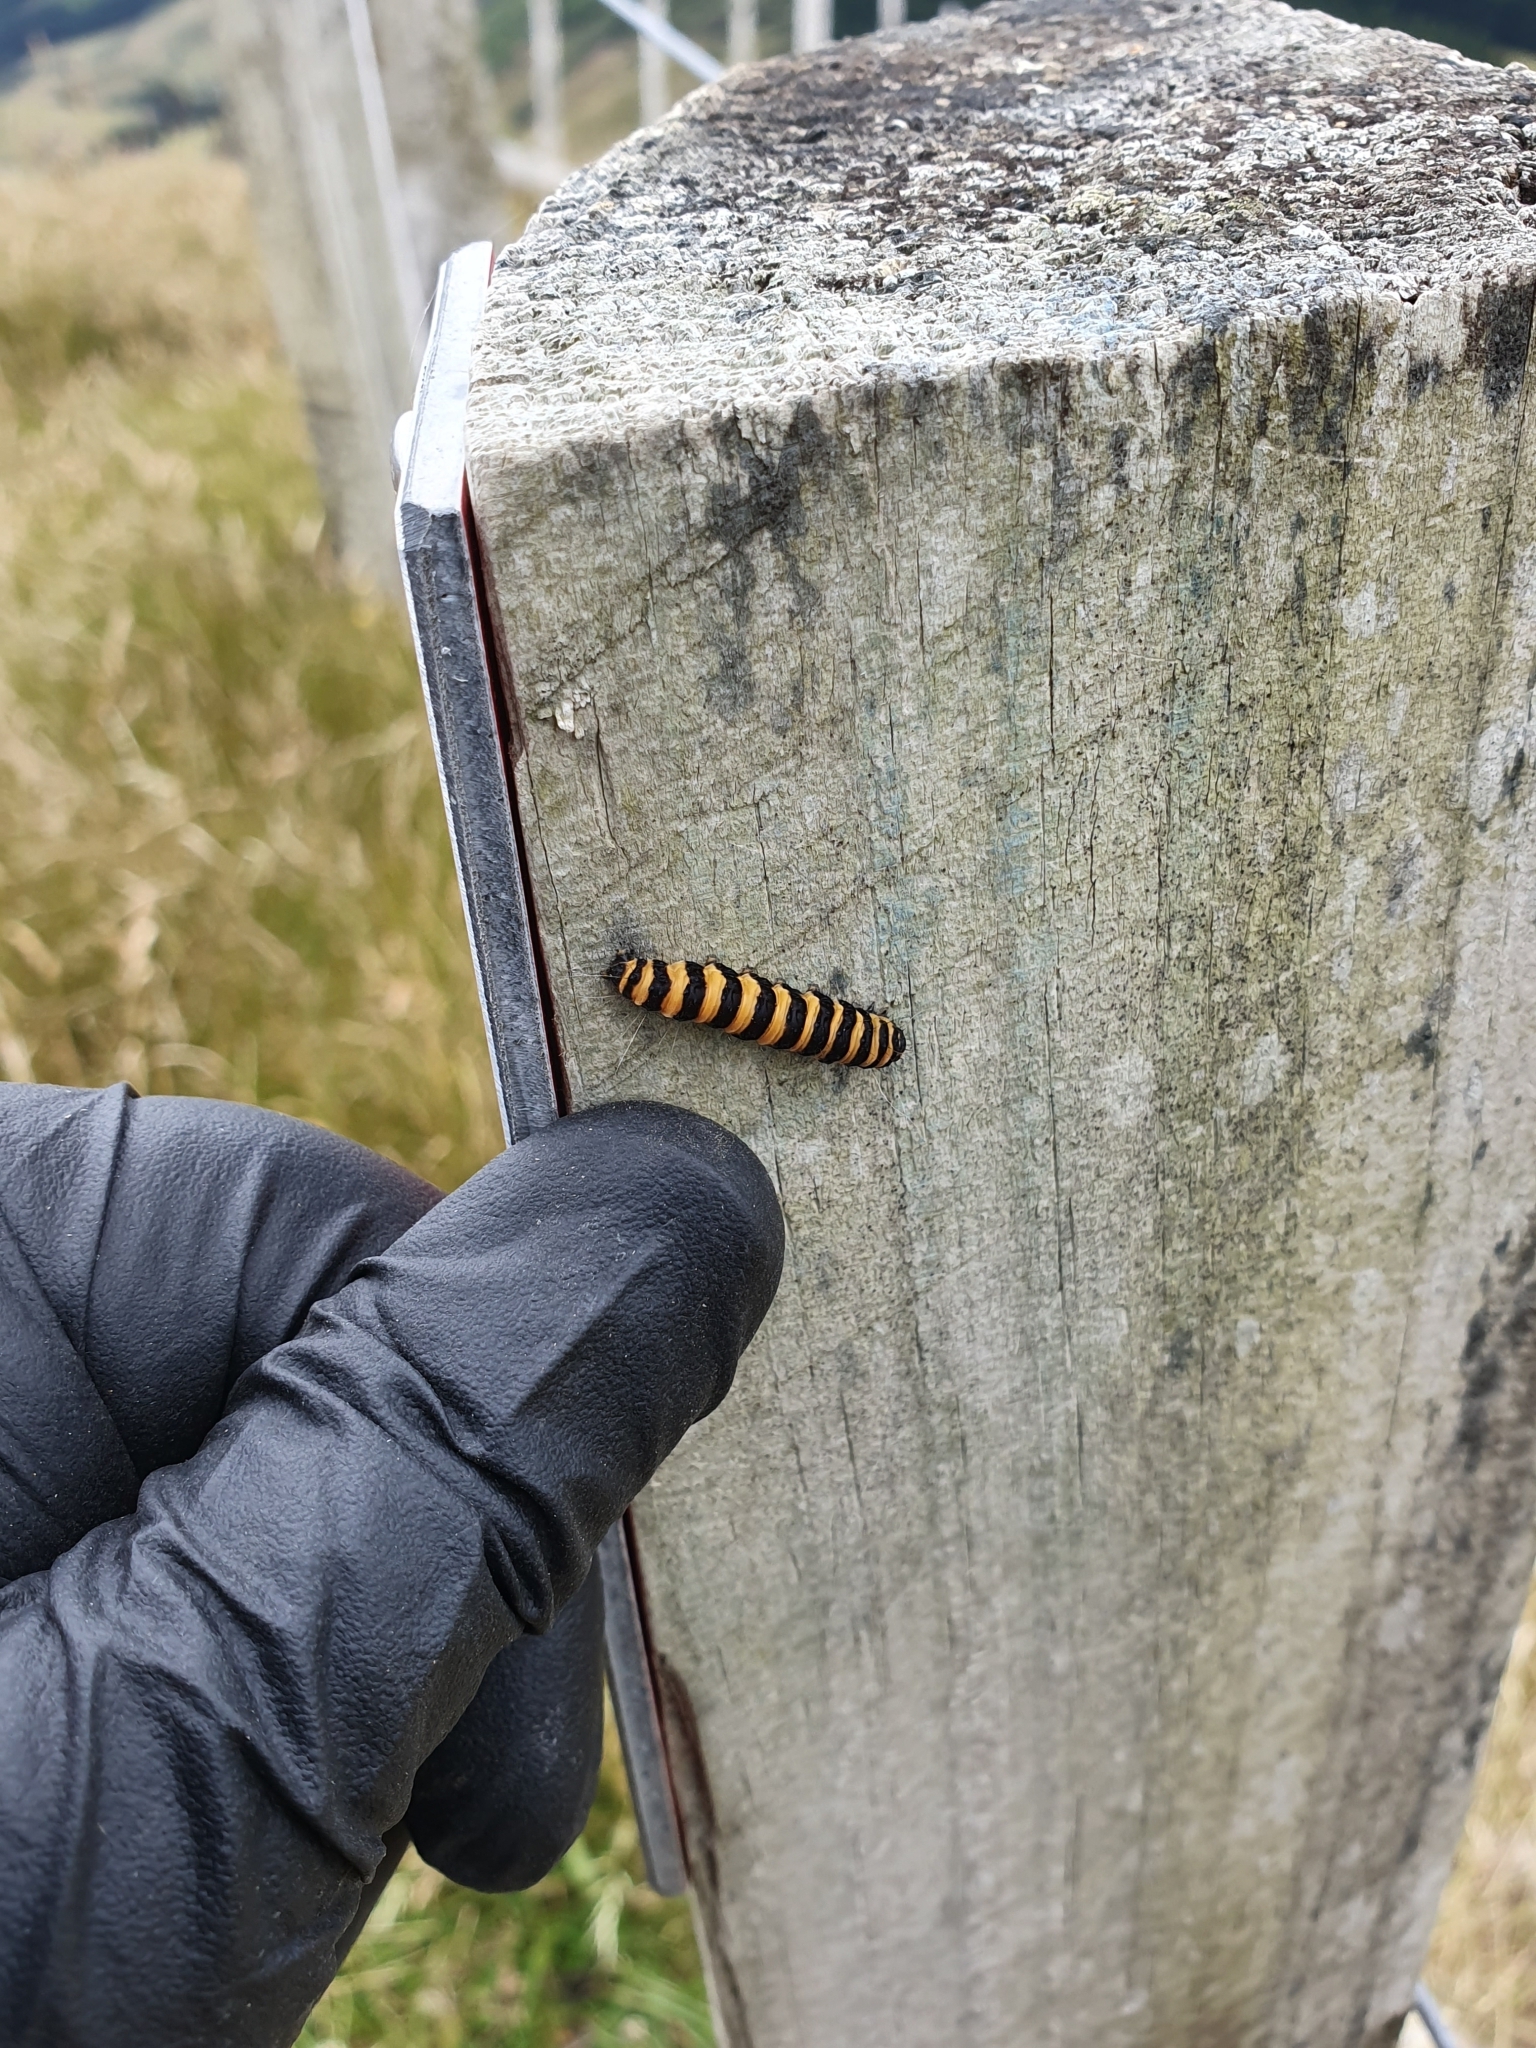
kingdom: Animalia
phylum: Arthropoda
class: Insecta
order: Lepidoptera
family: Erebidae
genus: Tyria
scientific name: Tyria jacobaeae
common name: Cinnabar
